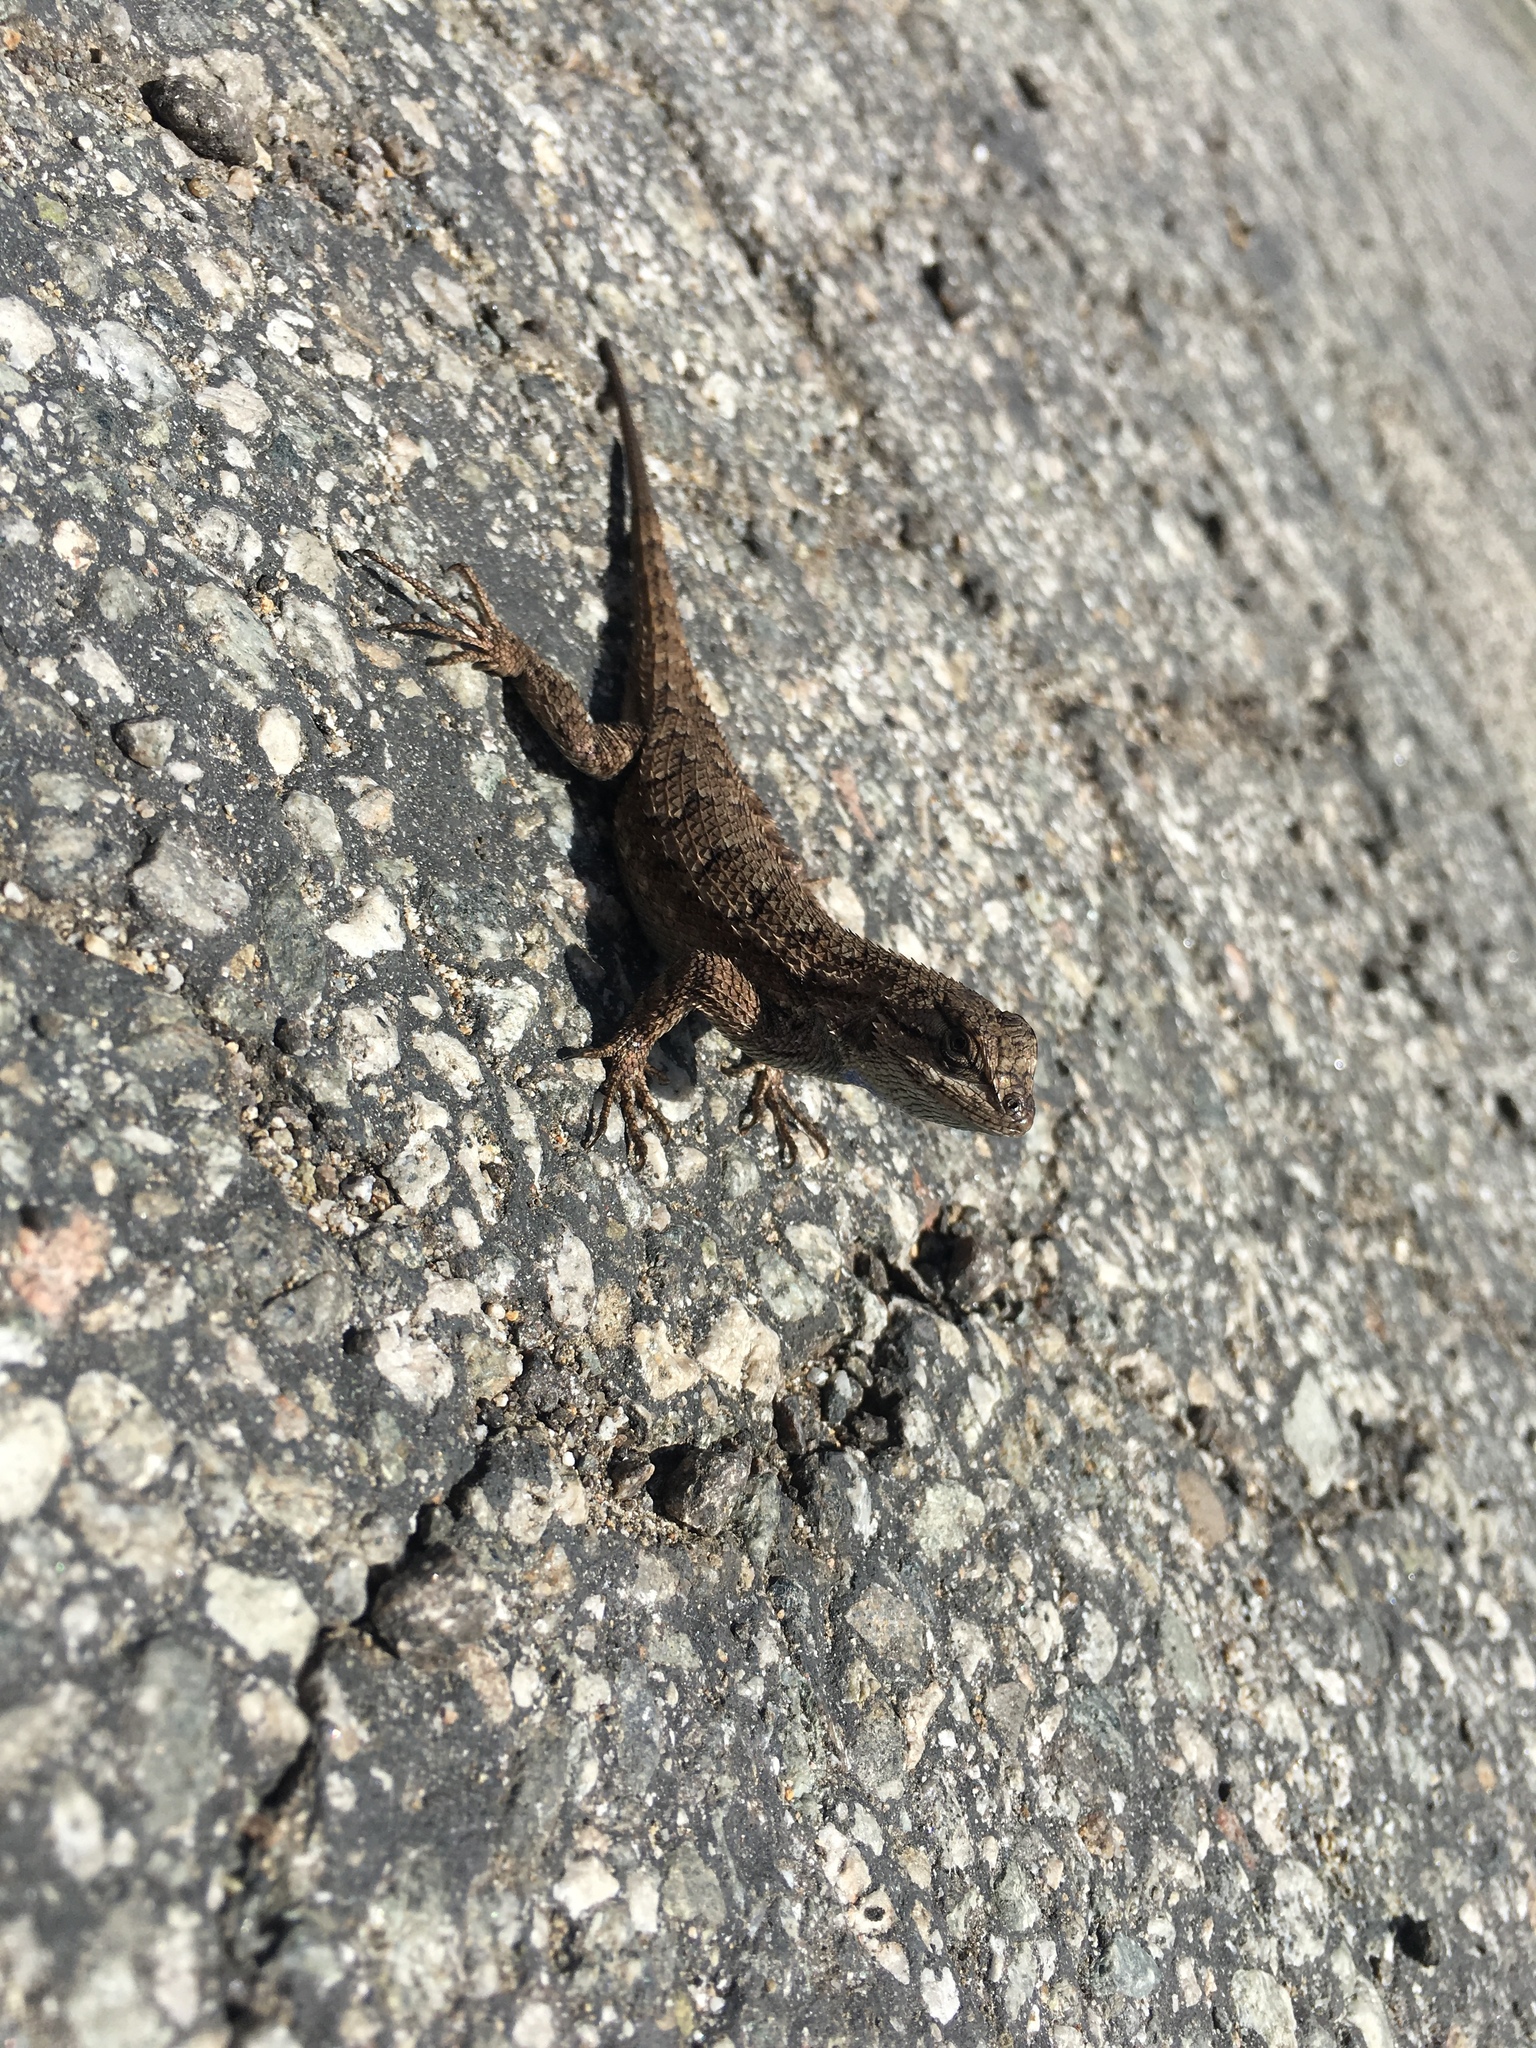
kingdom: Animalia
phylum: Chordata
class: Squamata
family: Phrynosomatidae
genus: Sceloporus
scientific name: Sceloporus occidentalis
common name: Western fence lizard
